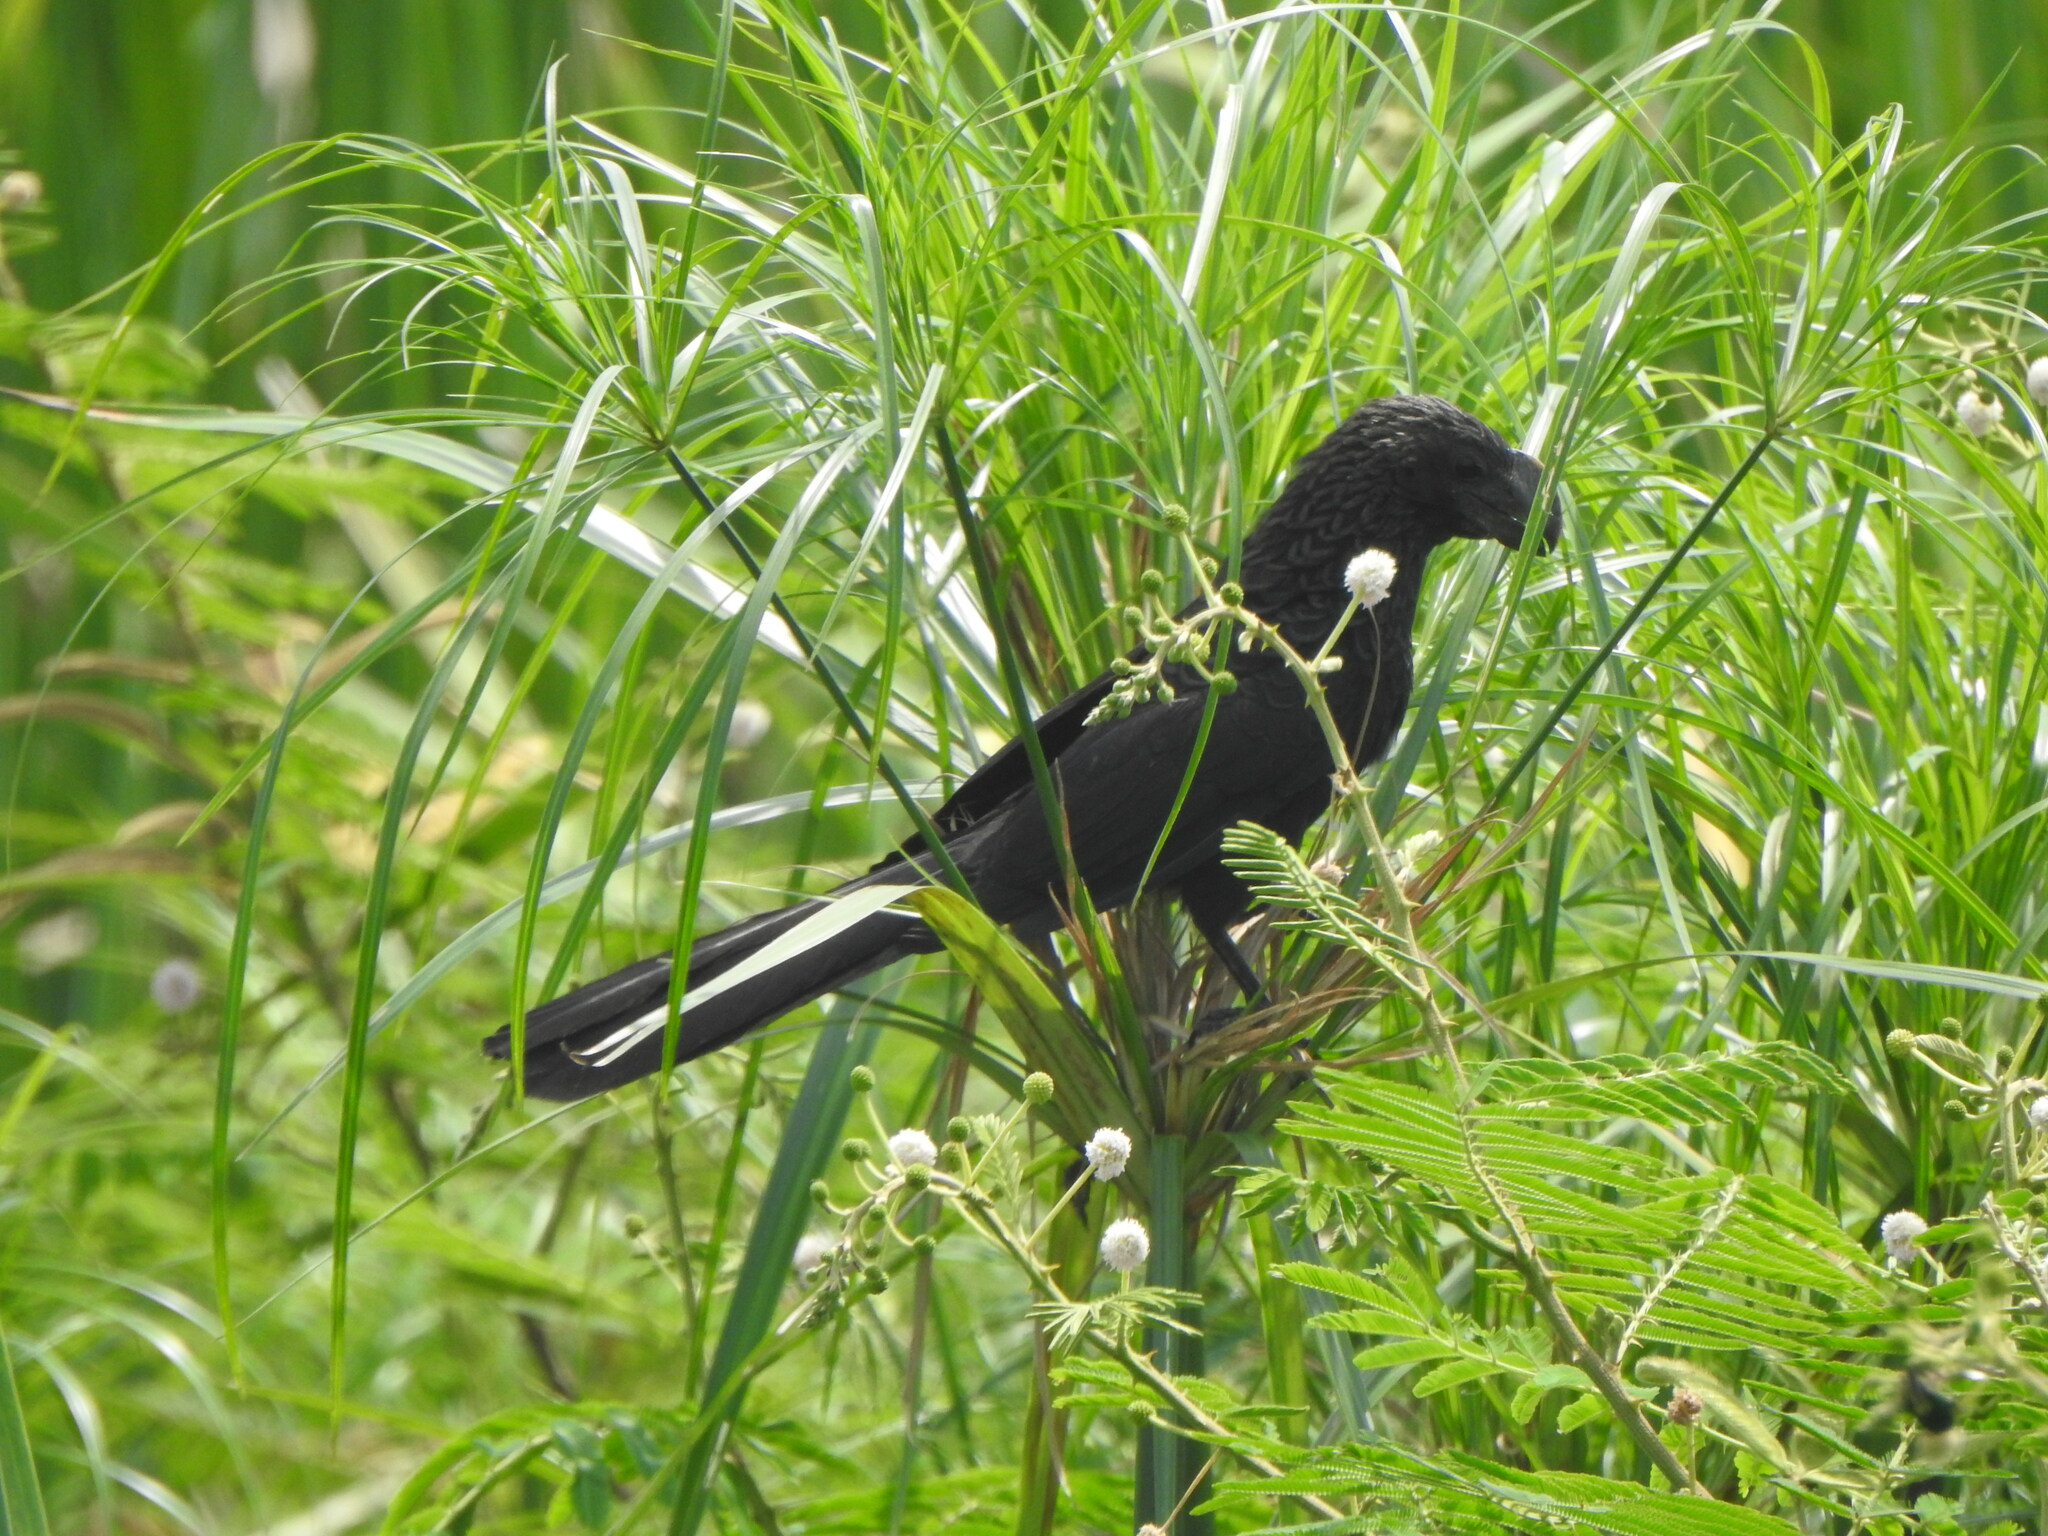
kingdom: Animalia
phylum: Chordata
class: Aves
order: Cuculiformes
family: Cuculidae
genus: Crotophaga
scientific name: Crotophaga ani
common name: Smooth-billed ani
